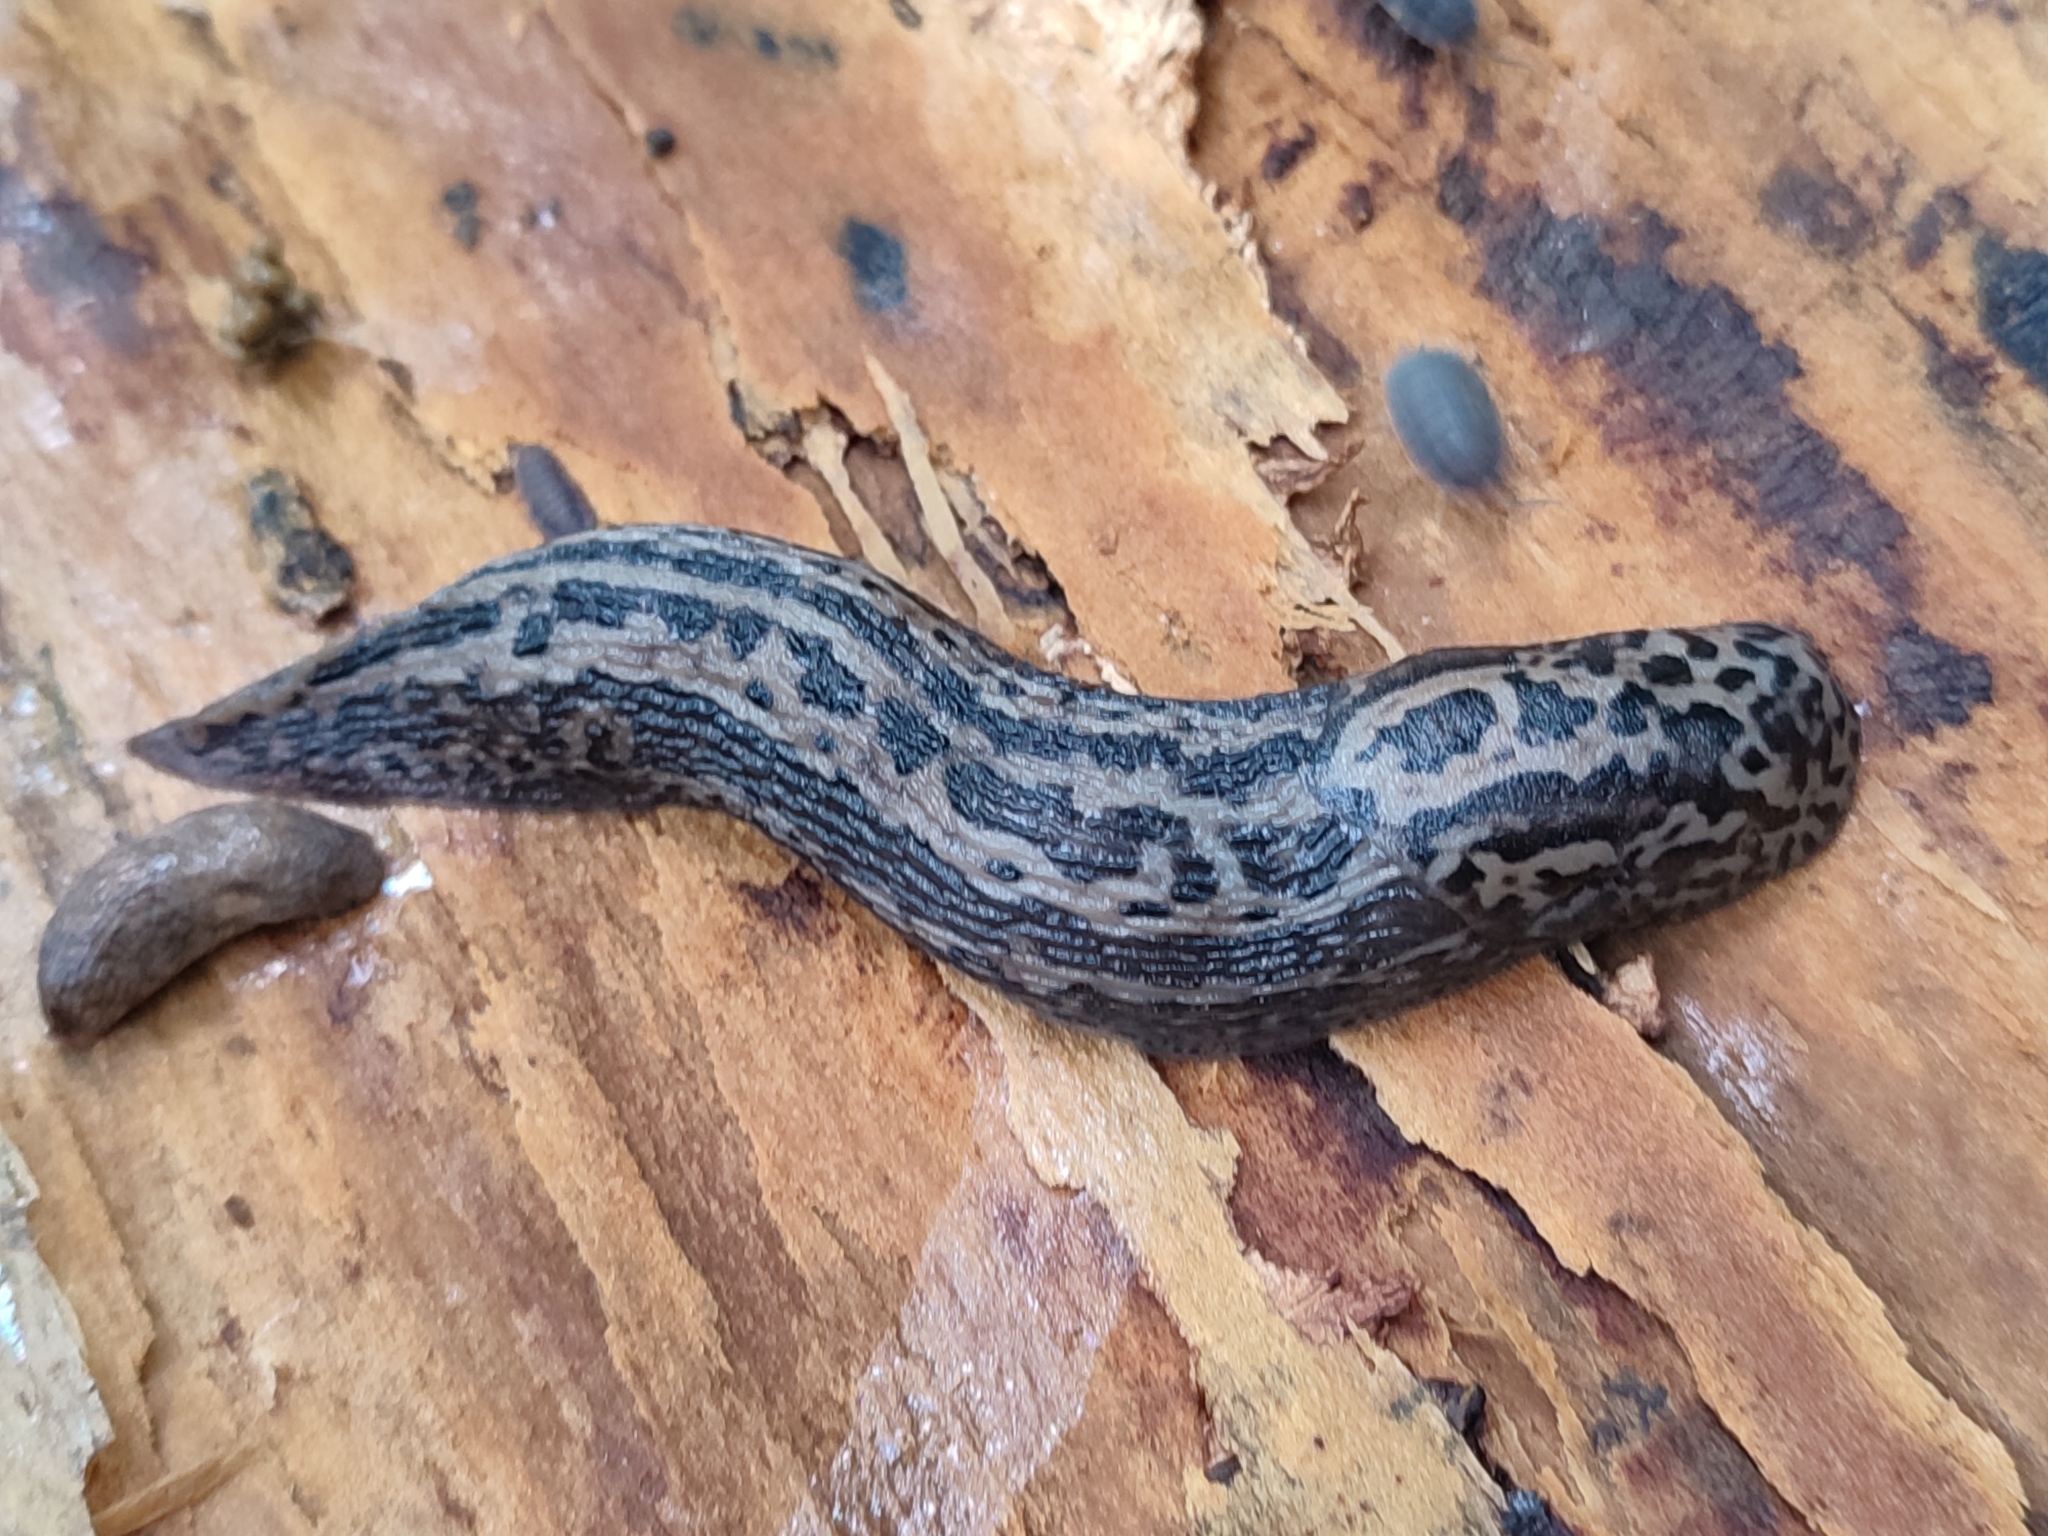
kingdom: Animalia
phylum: Mollusca
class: Gastropoda
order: Stylommatophora
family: Limacidae
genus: Limax
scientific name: Limax maximus
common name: Great grey slug
